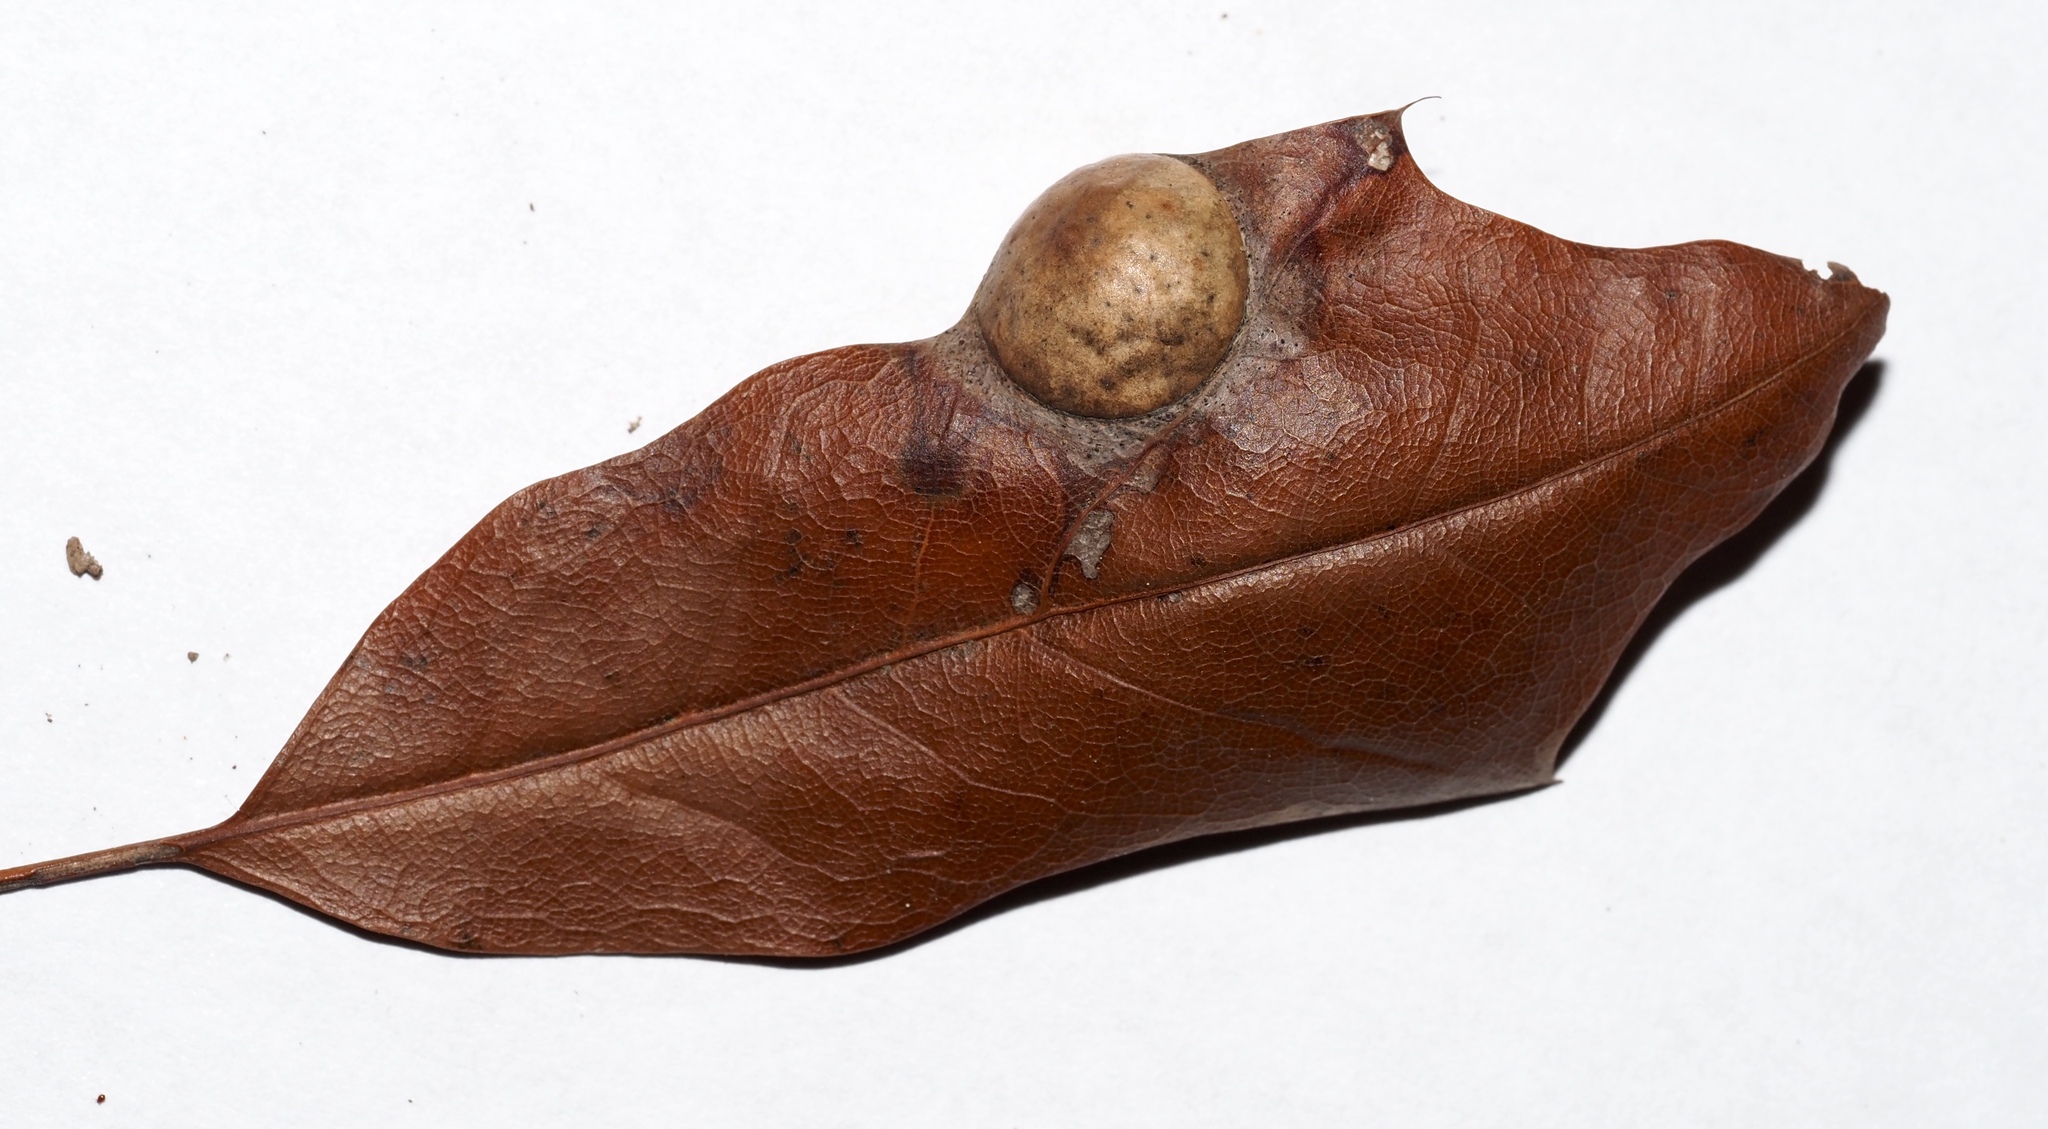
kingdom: Animalia
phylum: Arthropoda
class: Insecta
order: Hymenoptera
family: Cynipidae
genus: Amphibolips
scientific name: Amphibolips
